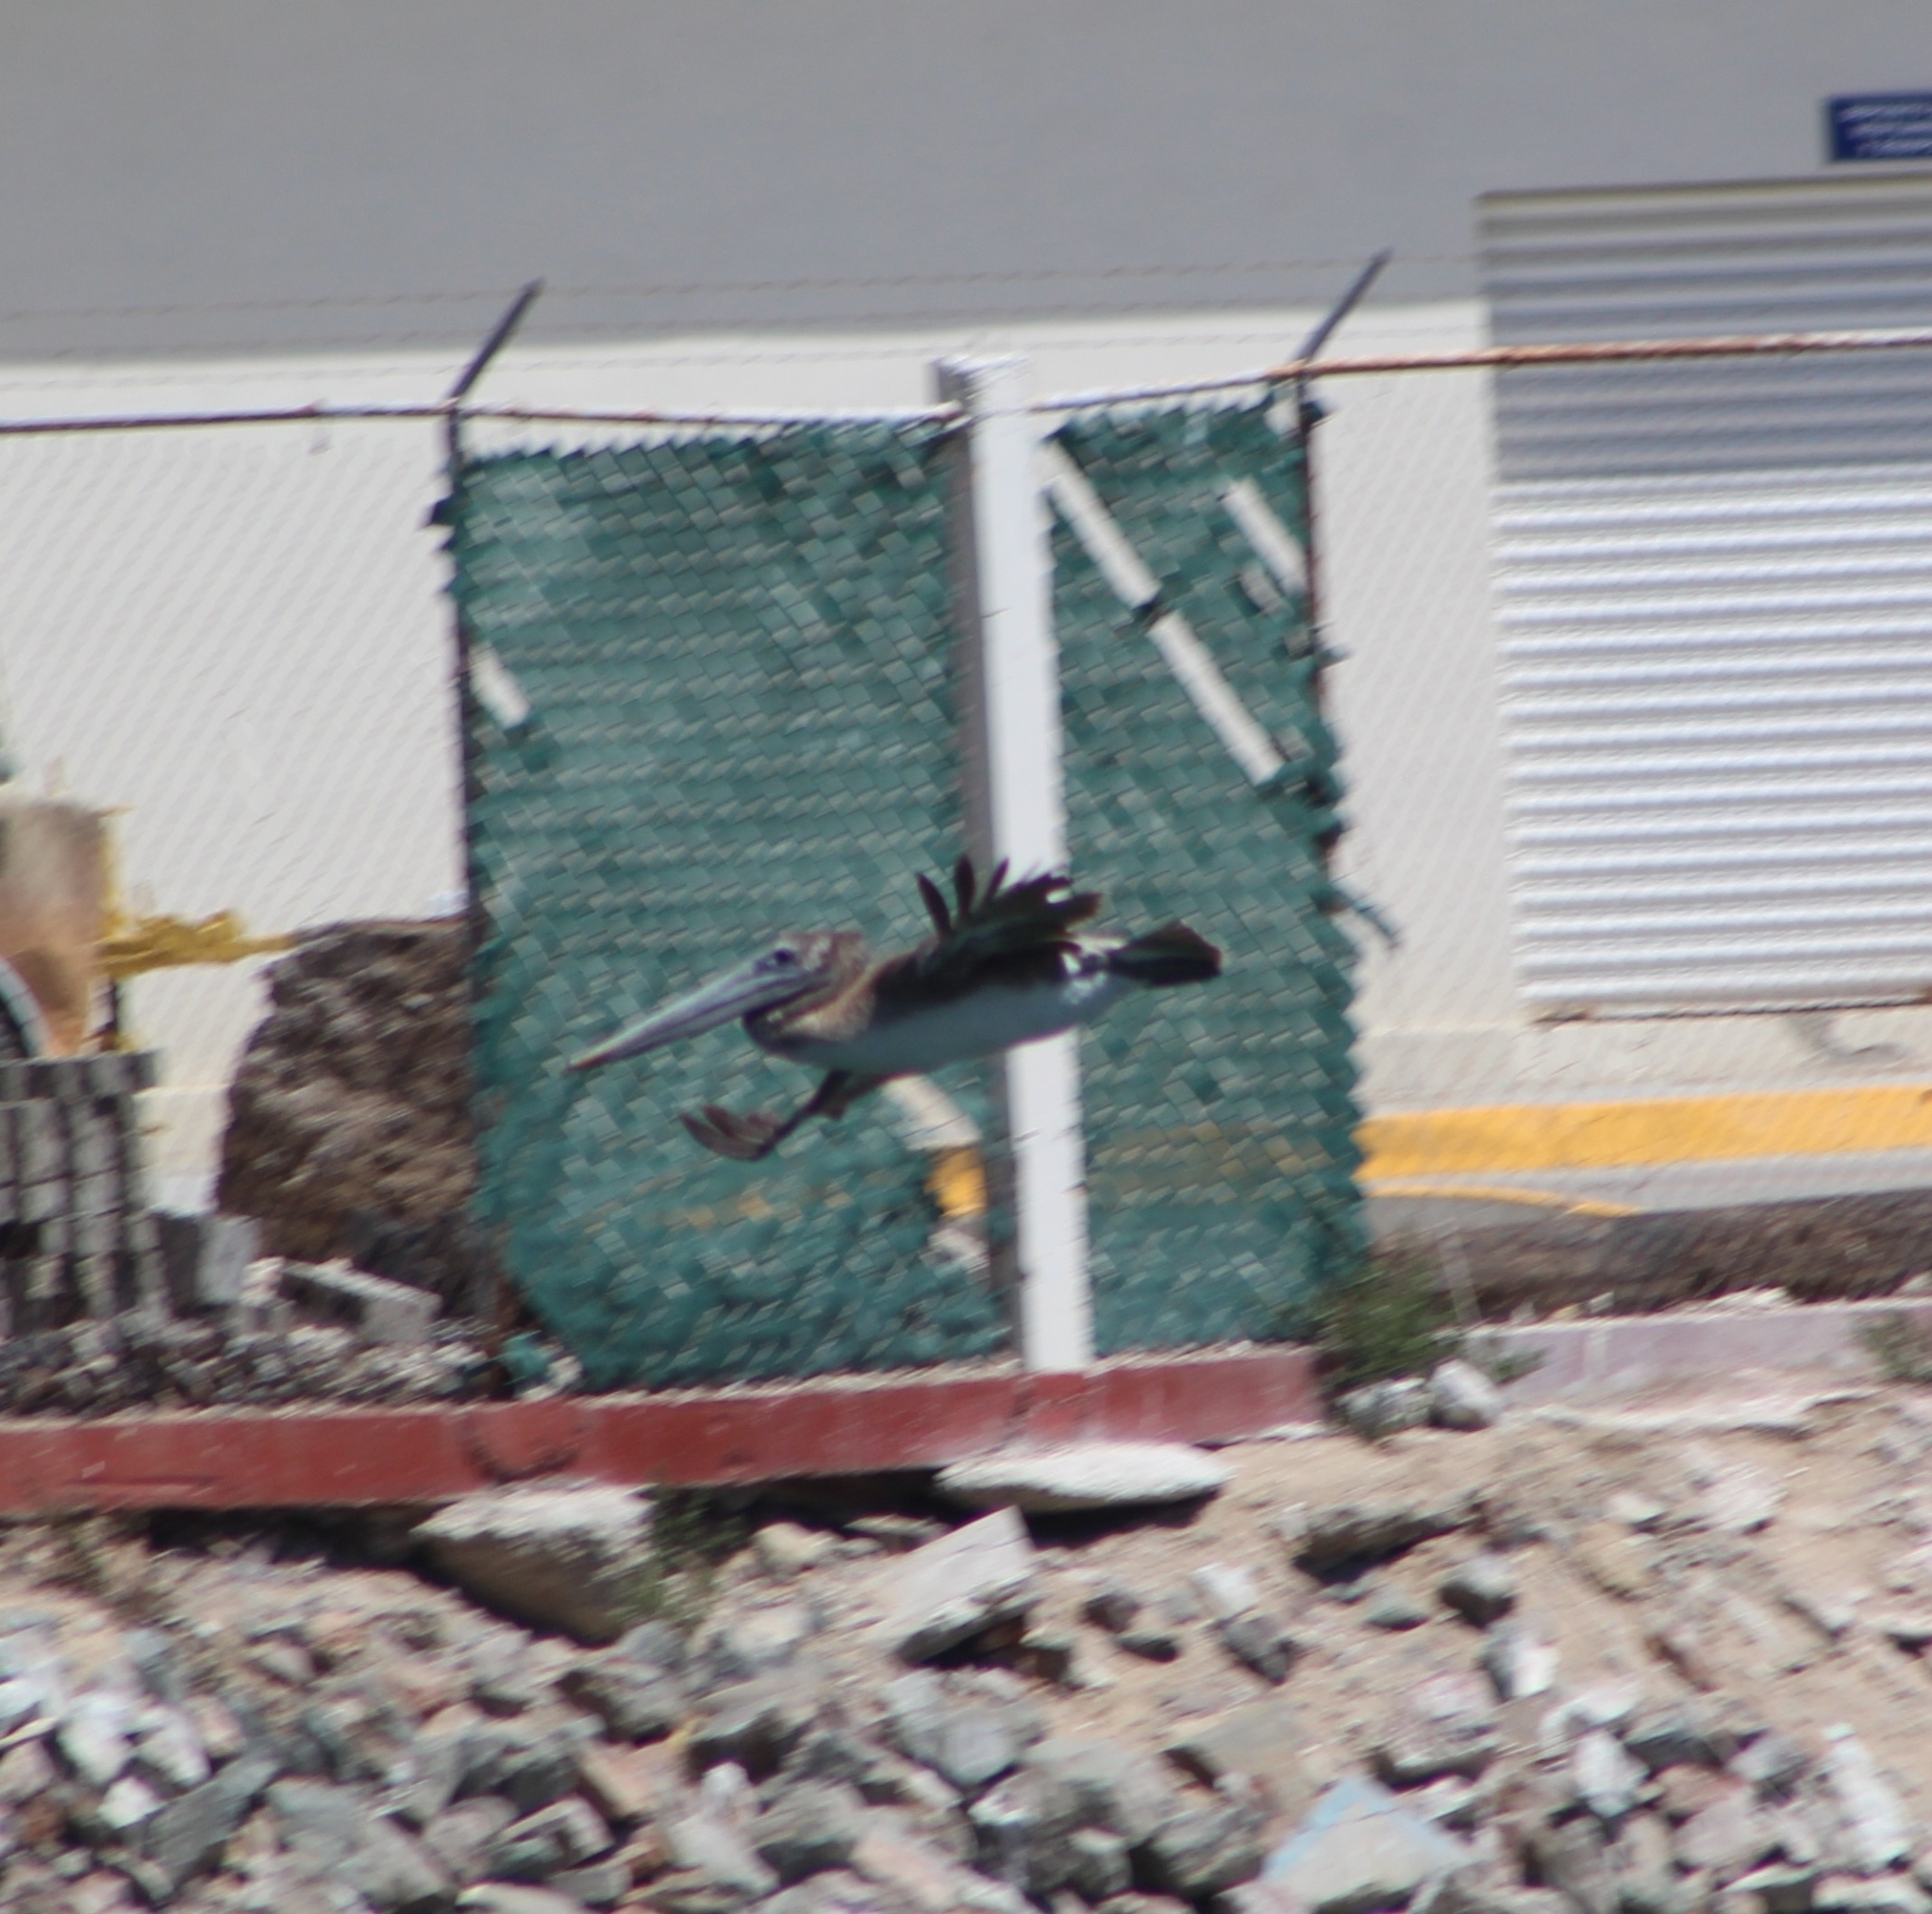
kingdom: Animalia
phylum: Chordata
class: Aves
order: Pelecaniformes
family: Pelecanidae
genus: Pelecanus
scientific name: Pelecanus occidentalis
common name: Brown pelican
